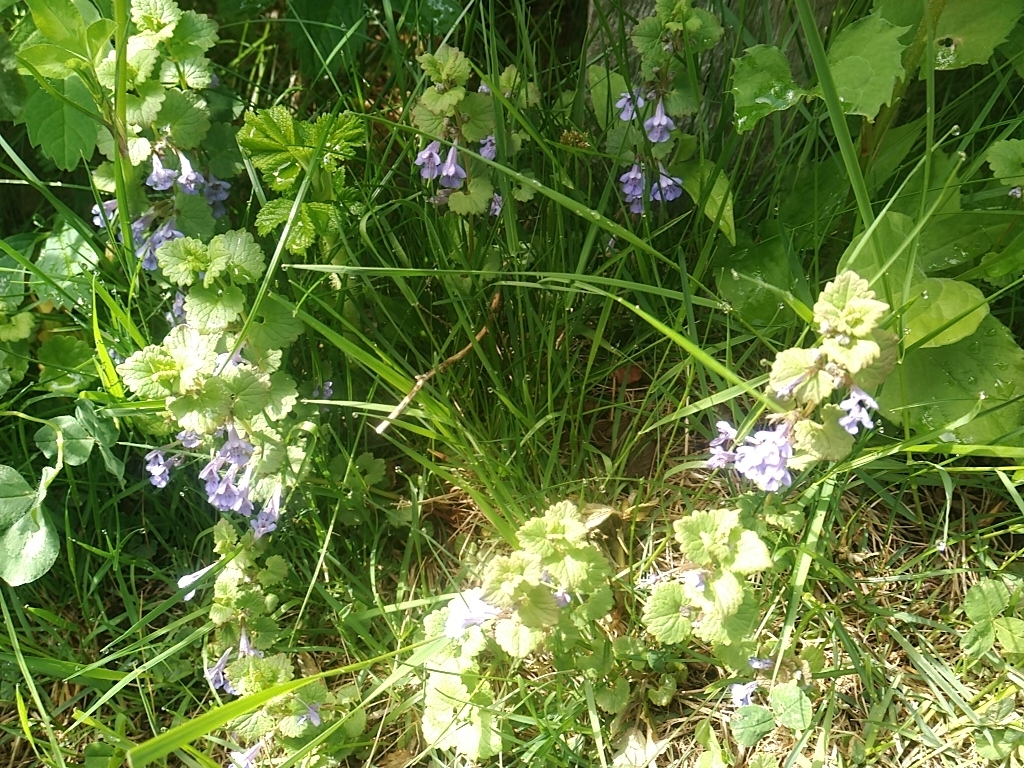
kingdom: Plantae
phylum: Tracheophyta
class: Magnoliopsida
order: Lamiales
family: Lamiaceae
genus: Glechoma
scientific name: Glechoma hederacea
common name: Ground ivy
